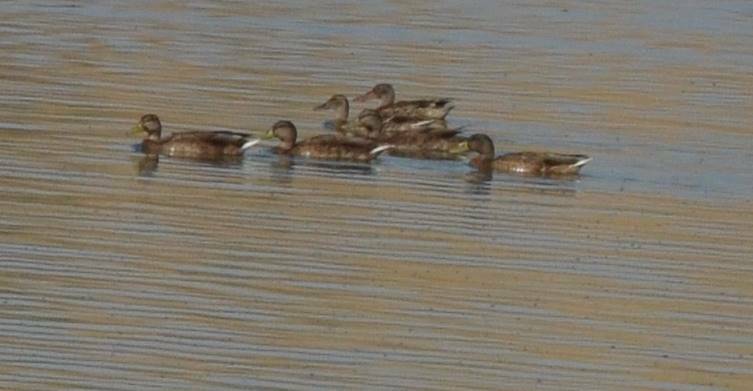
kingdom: Animalia
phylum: Chordata
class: Aves
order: Anseriformes
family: Anatidae
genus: Anas
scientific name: Anas platyrhynchos
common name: Mallard
